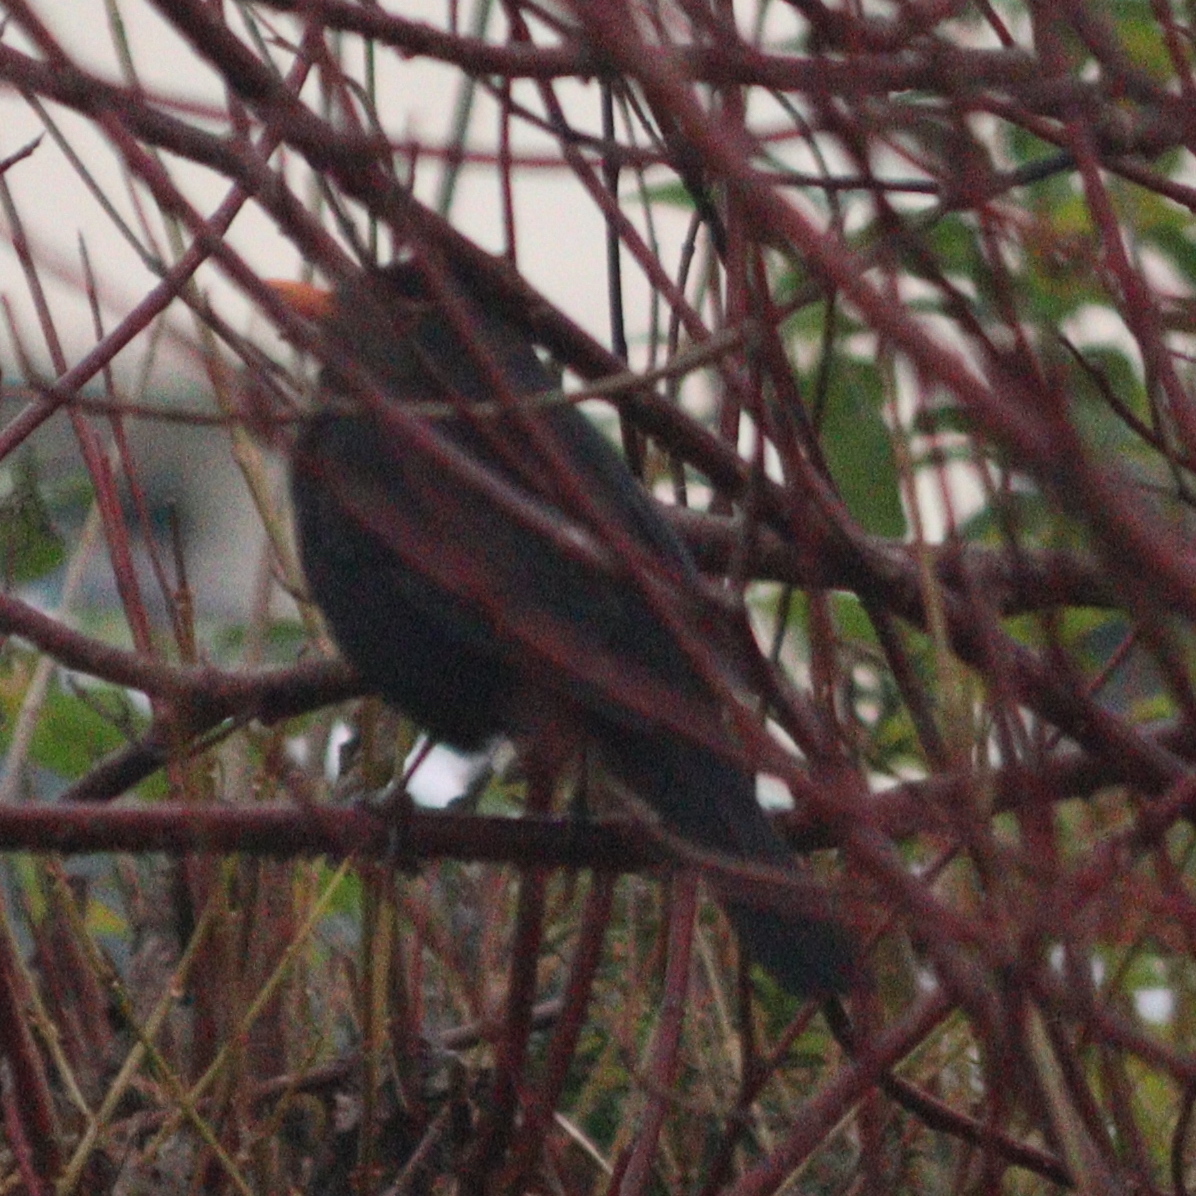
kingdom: Animalia
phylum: Chordata
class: Aves
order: Passeriformes
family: Turdidae
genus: Turdus
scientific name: Turdus merula
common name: Common blackbird
